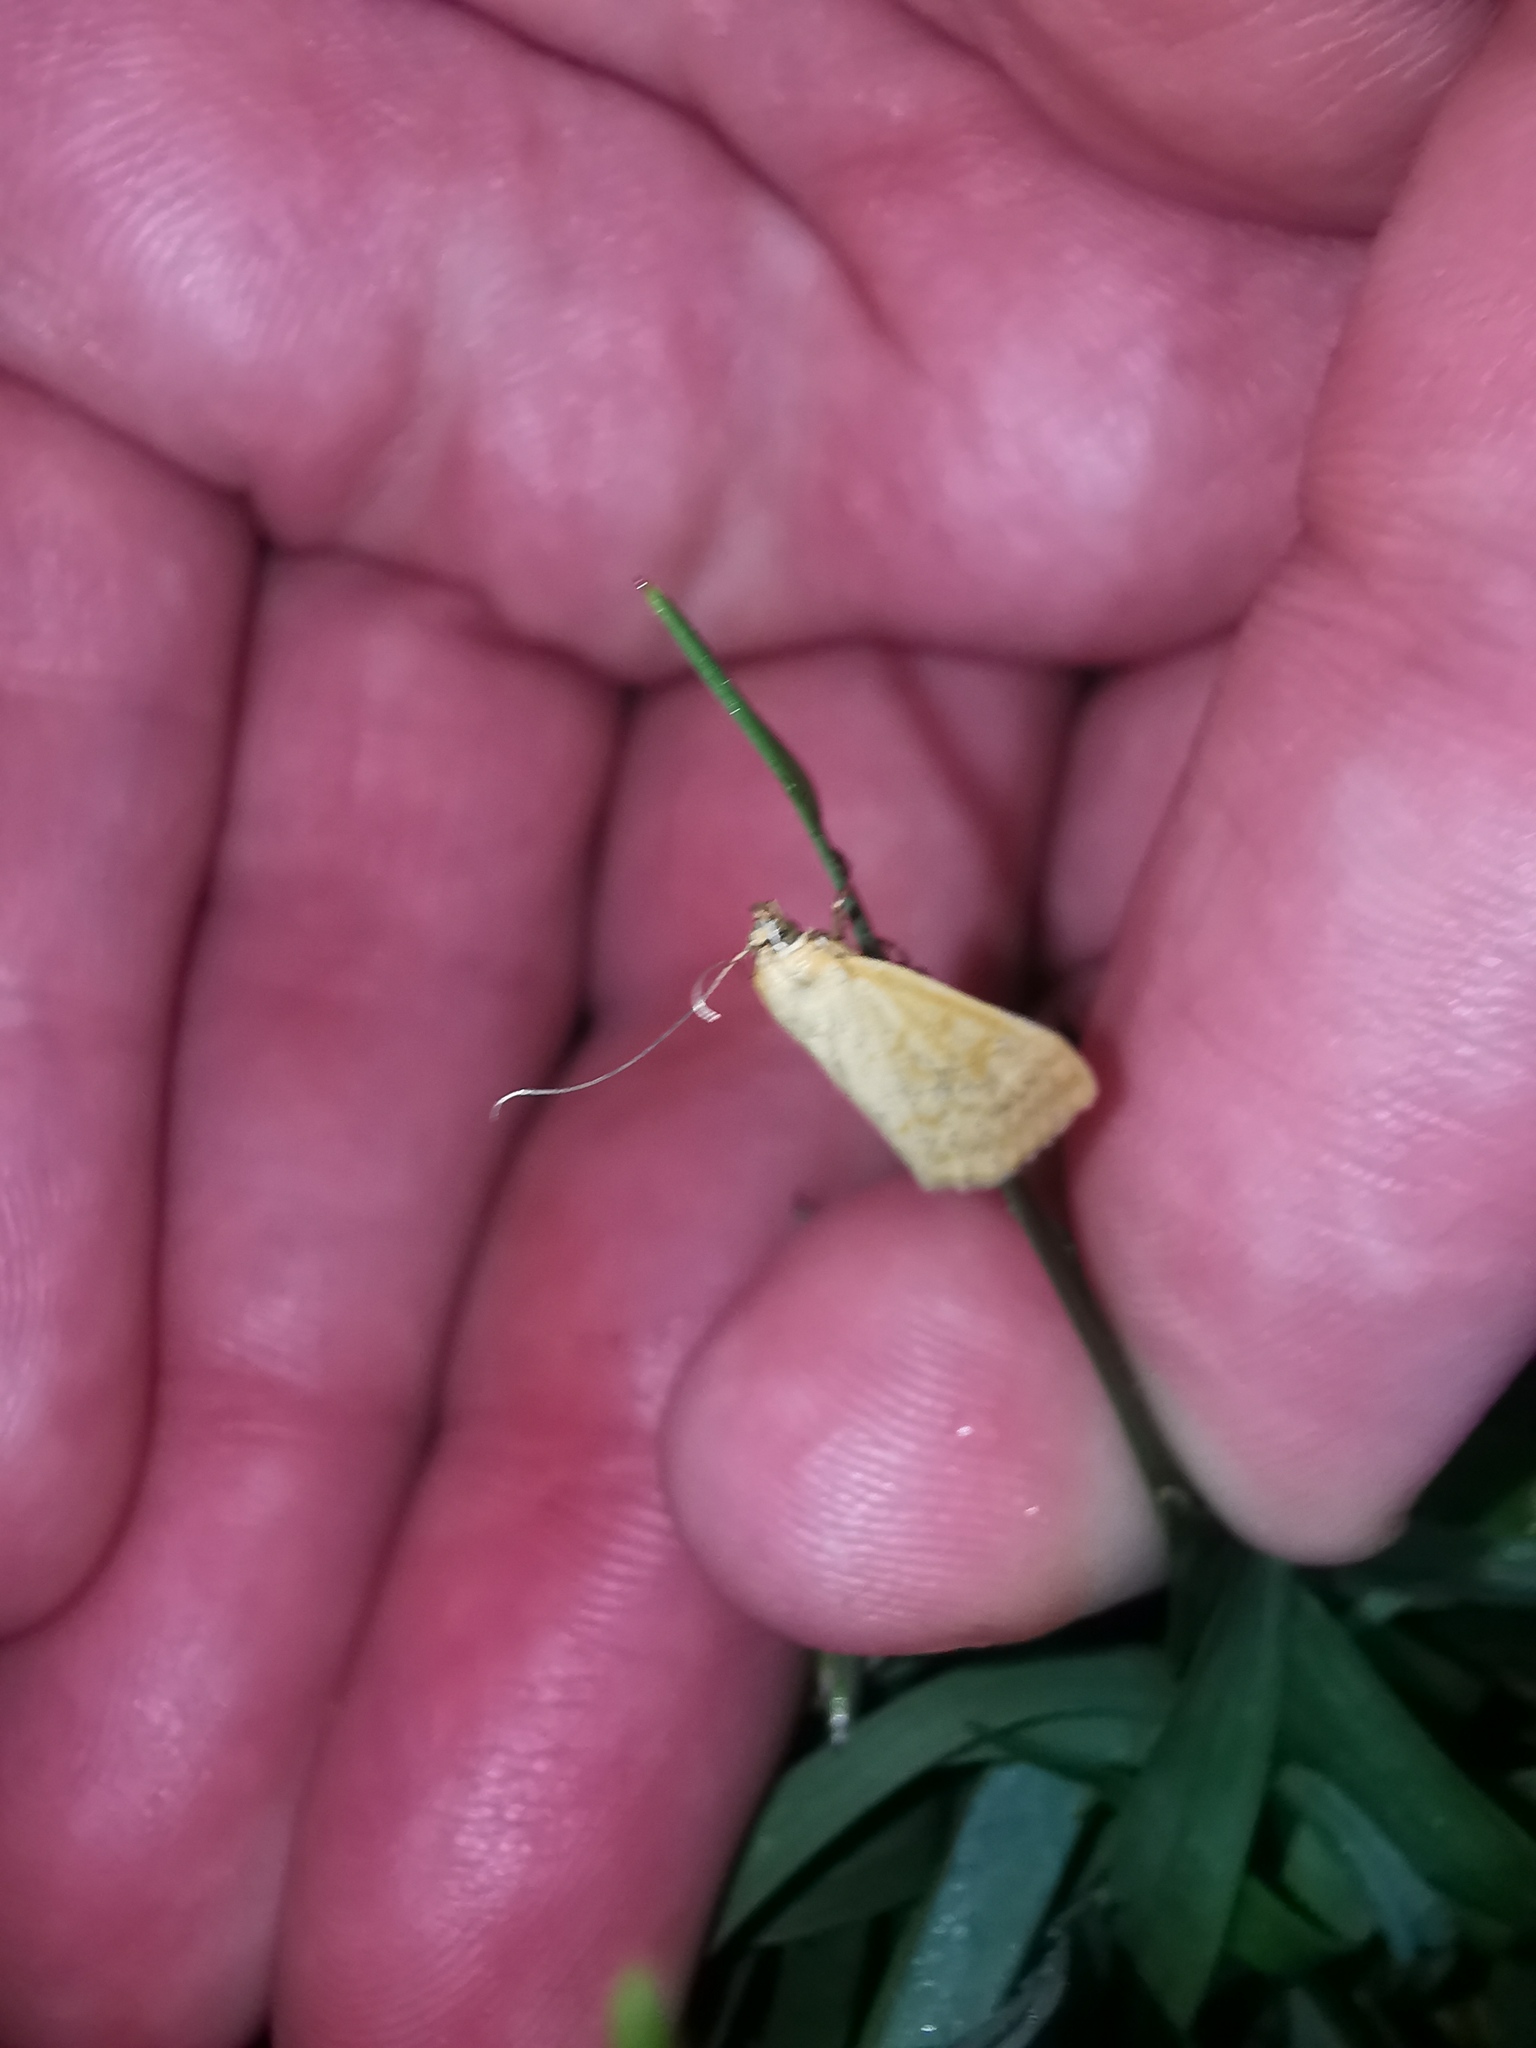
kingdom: Animalia
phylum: Arthropoda
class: Insecta
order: Lepidoptera
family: Crambidae
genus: Sitochroa
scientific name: Sitochroa verticalis
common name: Lesser pearl
